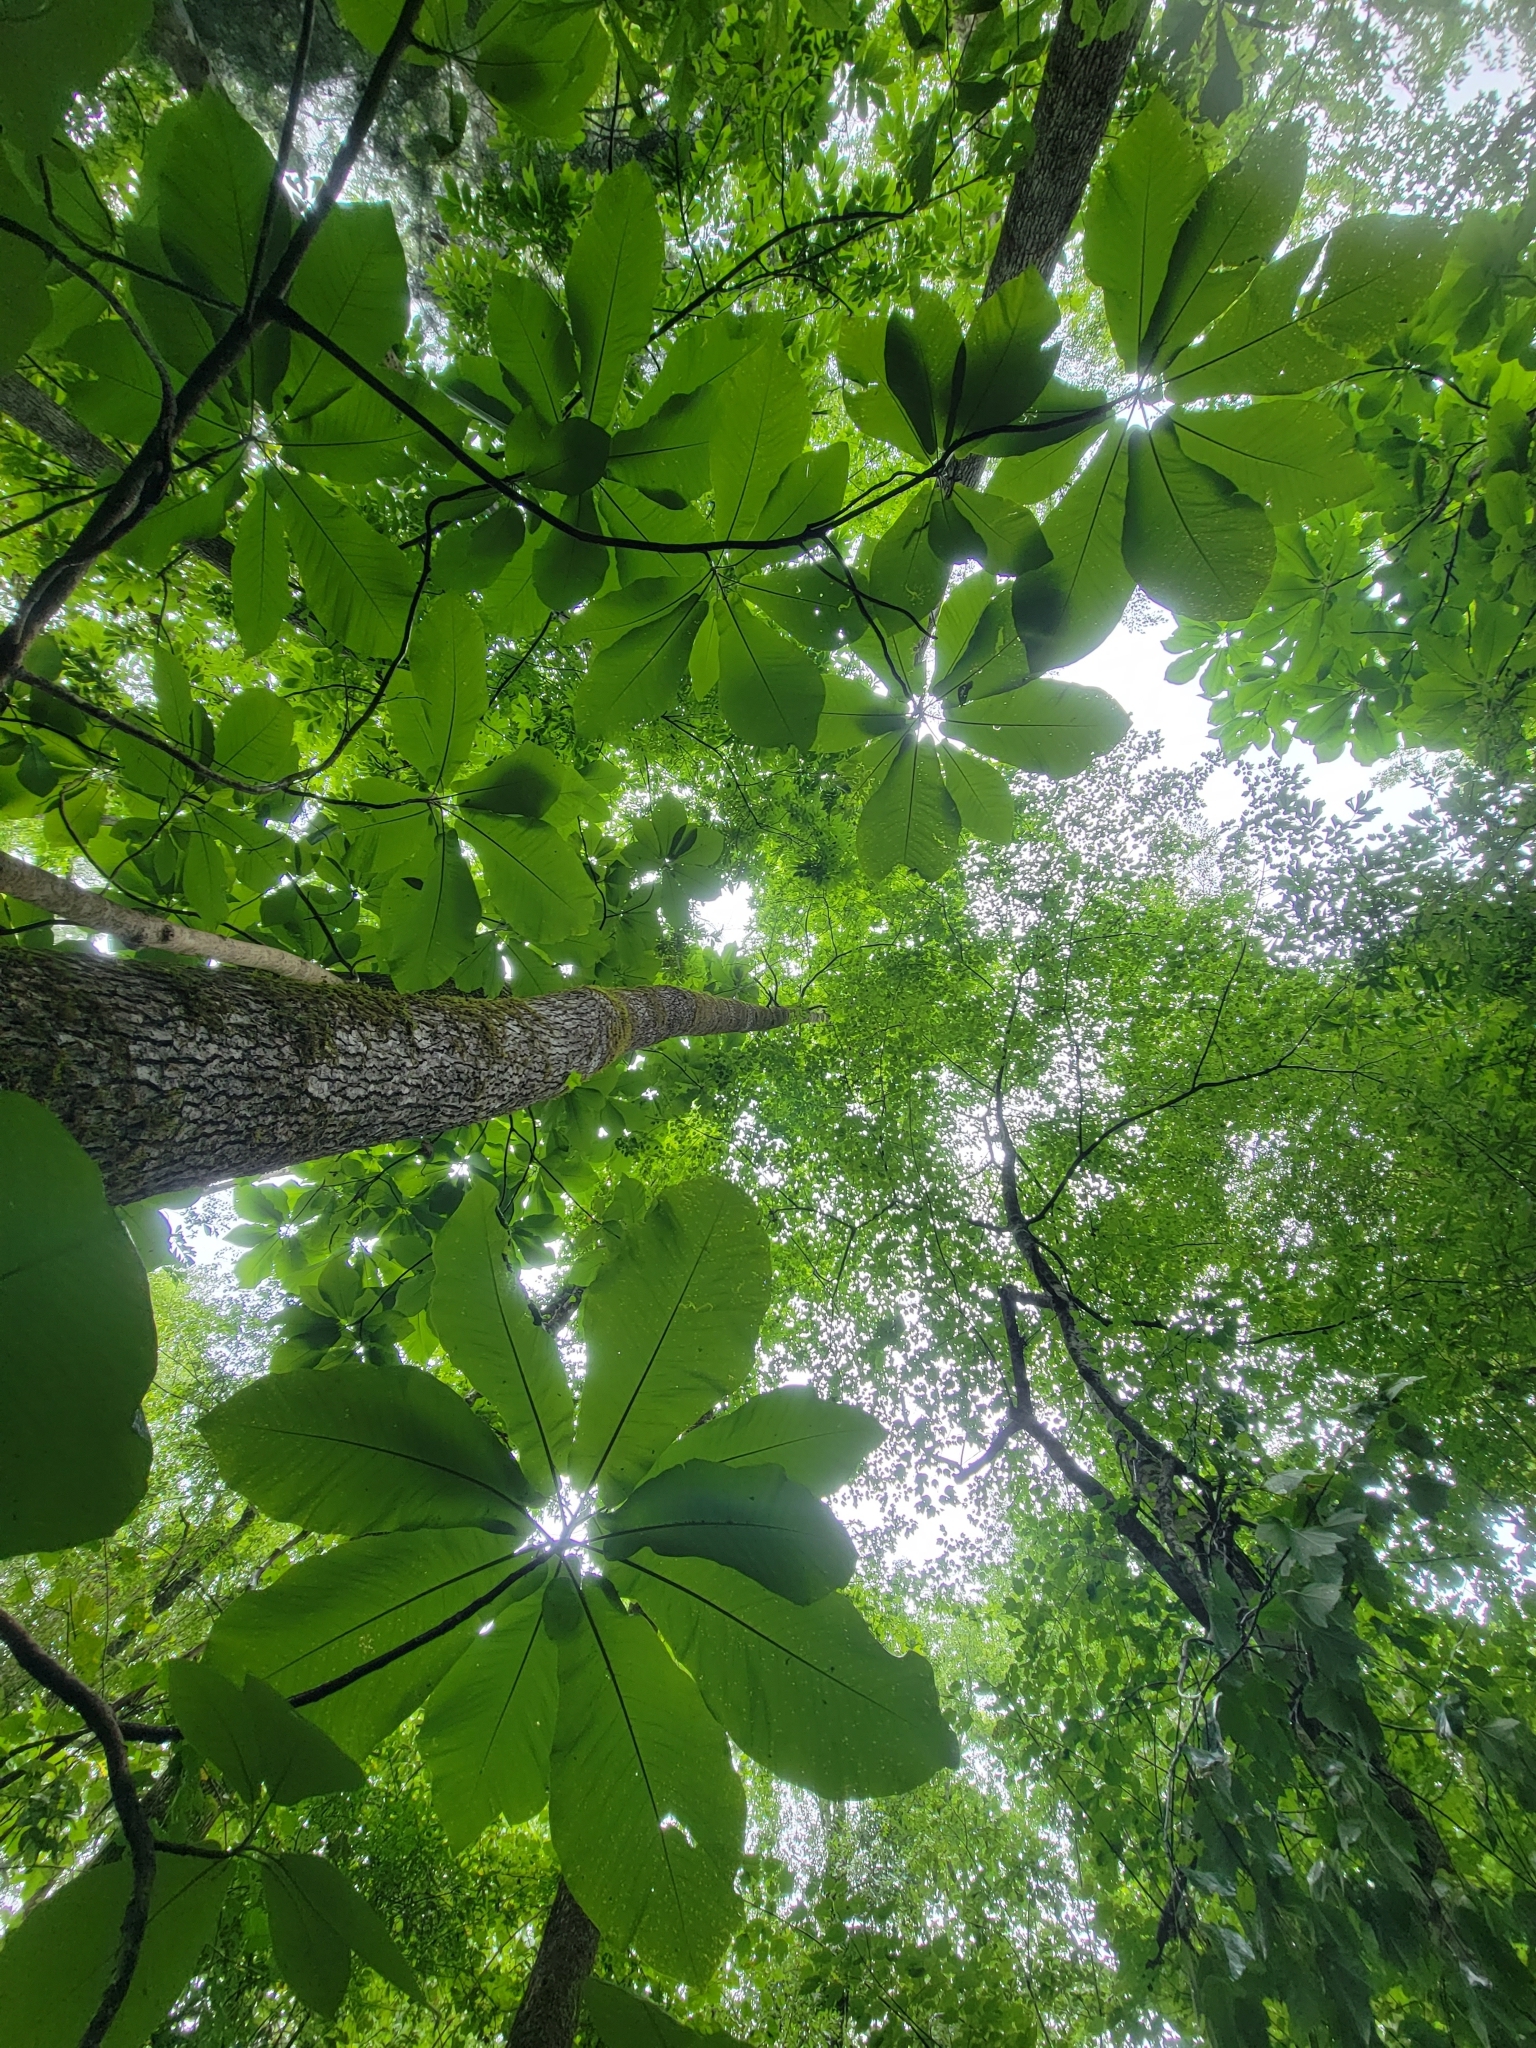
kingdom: Plantae
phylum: Tracheophyta
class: Magnoliopsida
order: Magnoliales
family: Magnoliaceae
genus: Magnolia
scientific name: Magnolia macrophylla
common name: Big-leaf magnolia
